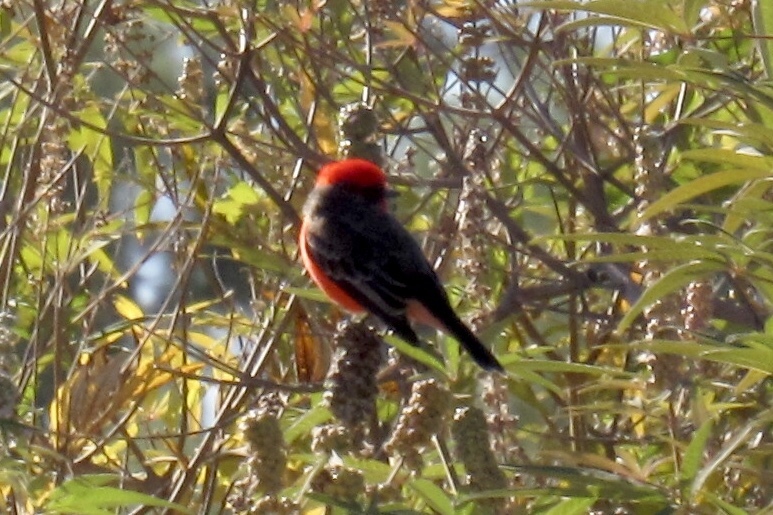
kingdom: Animalia
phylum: Chordata
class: Aves
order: Passeriformes
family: Tyrannidae
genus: Pyrocephalus
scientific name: Pyrocephalus rubinus
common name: Vermilion flycatcher
